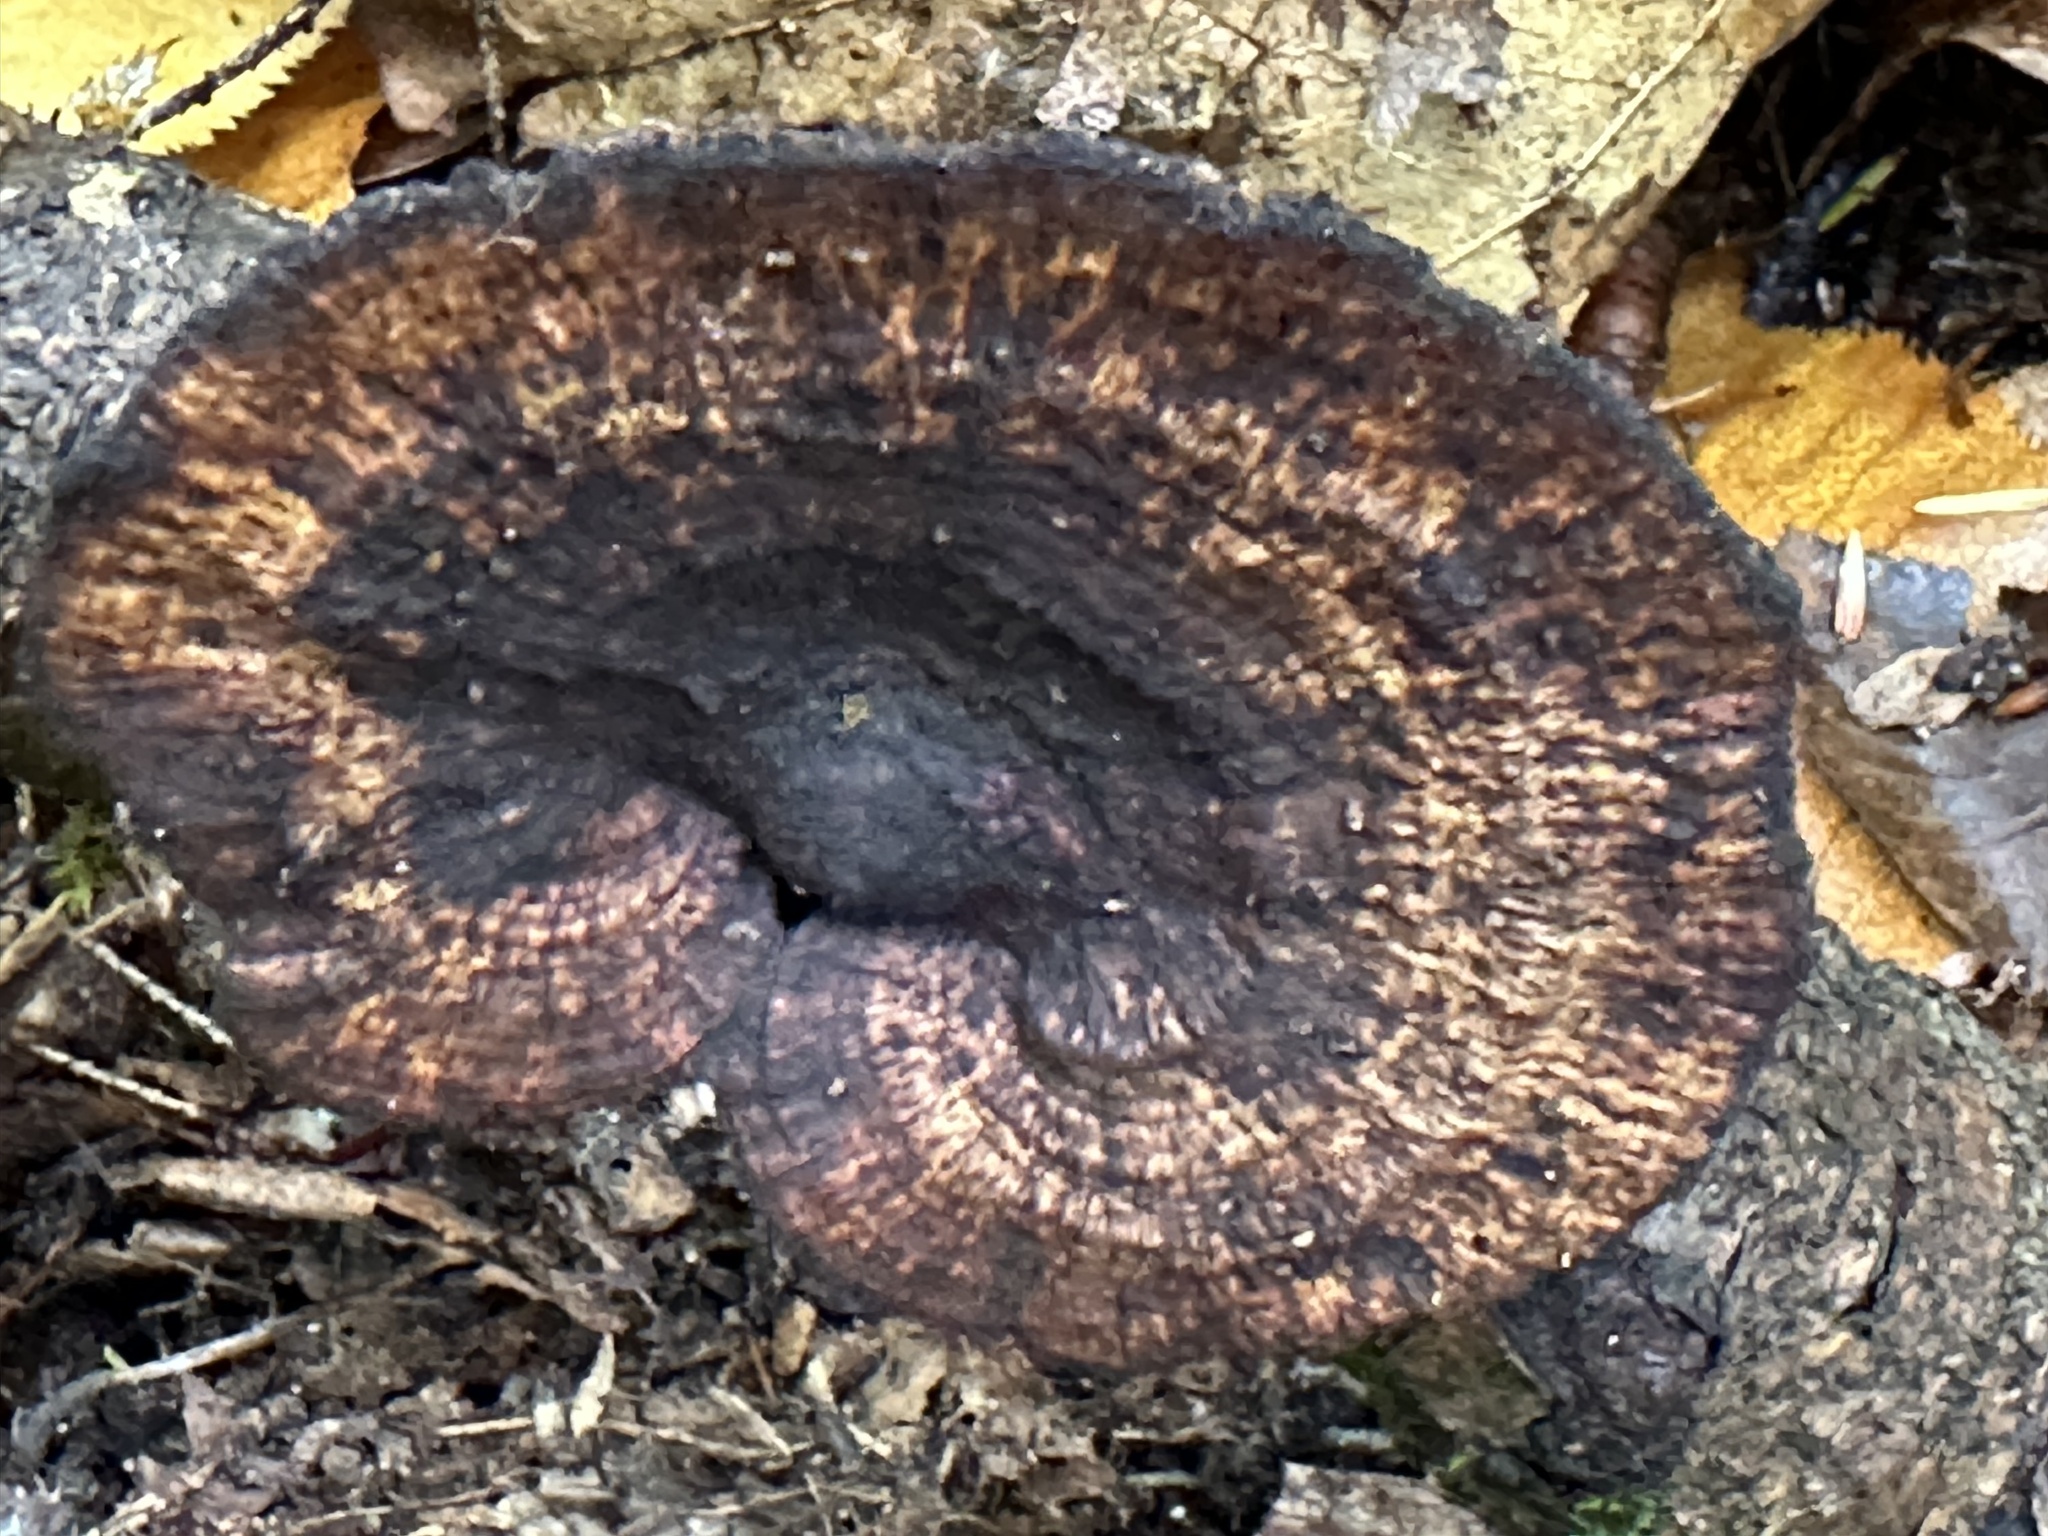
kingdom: Fungi
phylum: Basidiomycota
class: Agaricomycetes
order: Polyporales
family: Polyporaceae
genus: Daedaleopsis
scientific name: Daedaleopsis confragosa
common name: Blushing bracket
